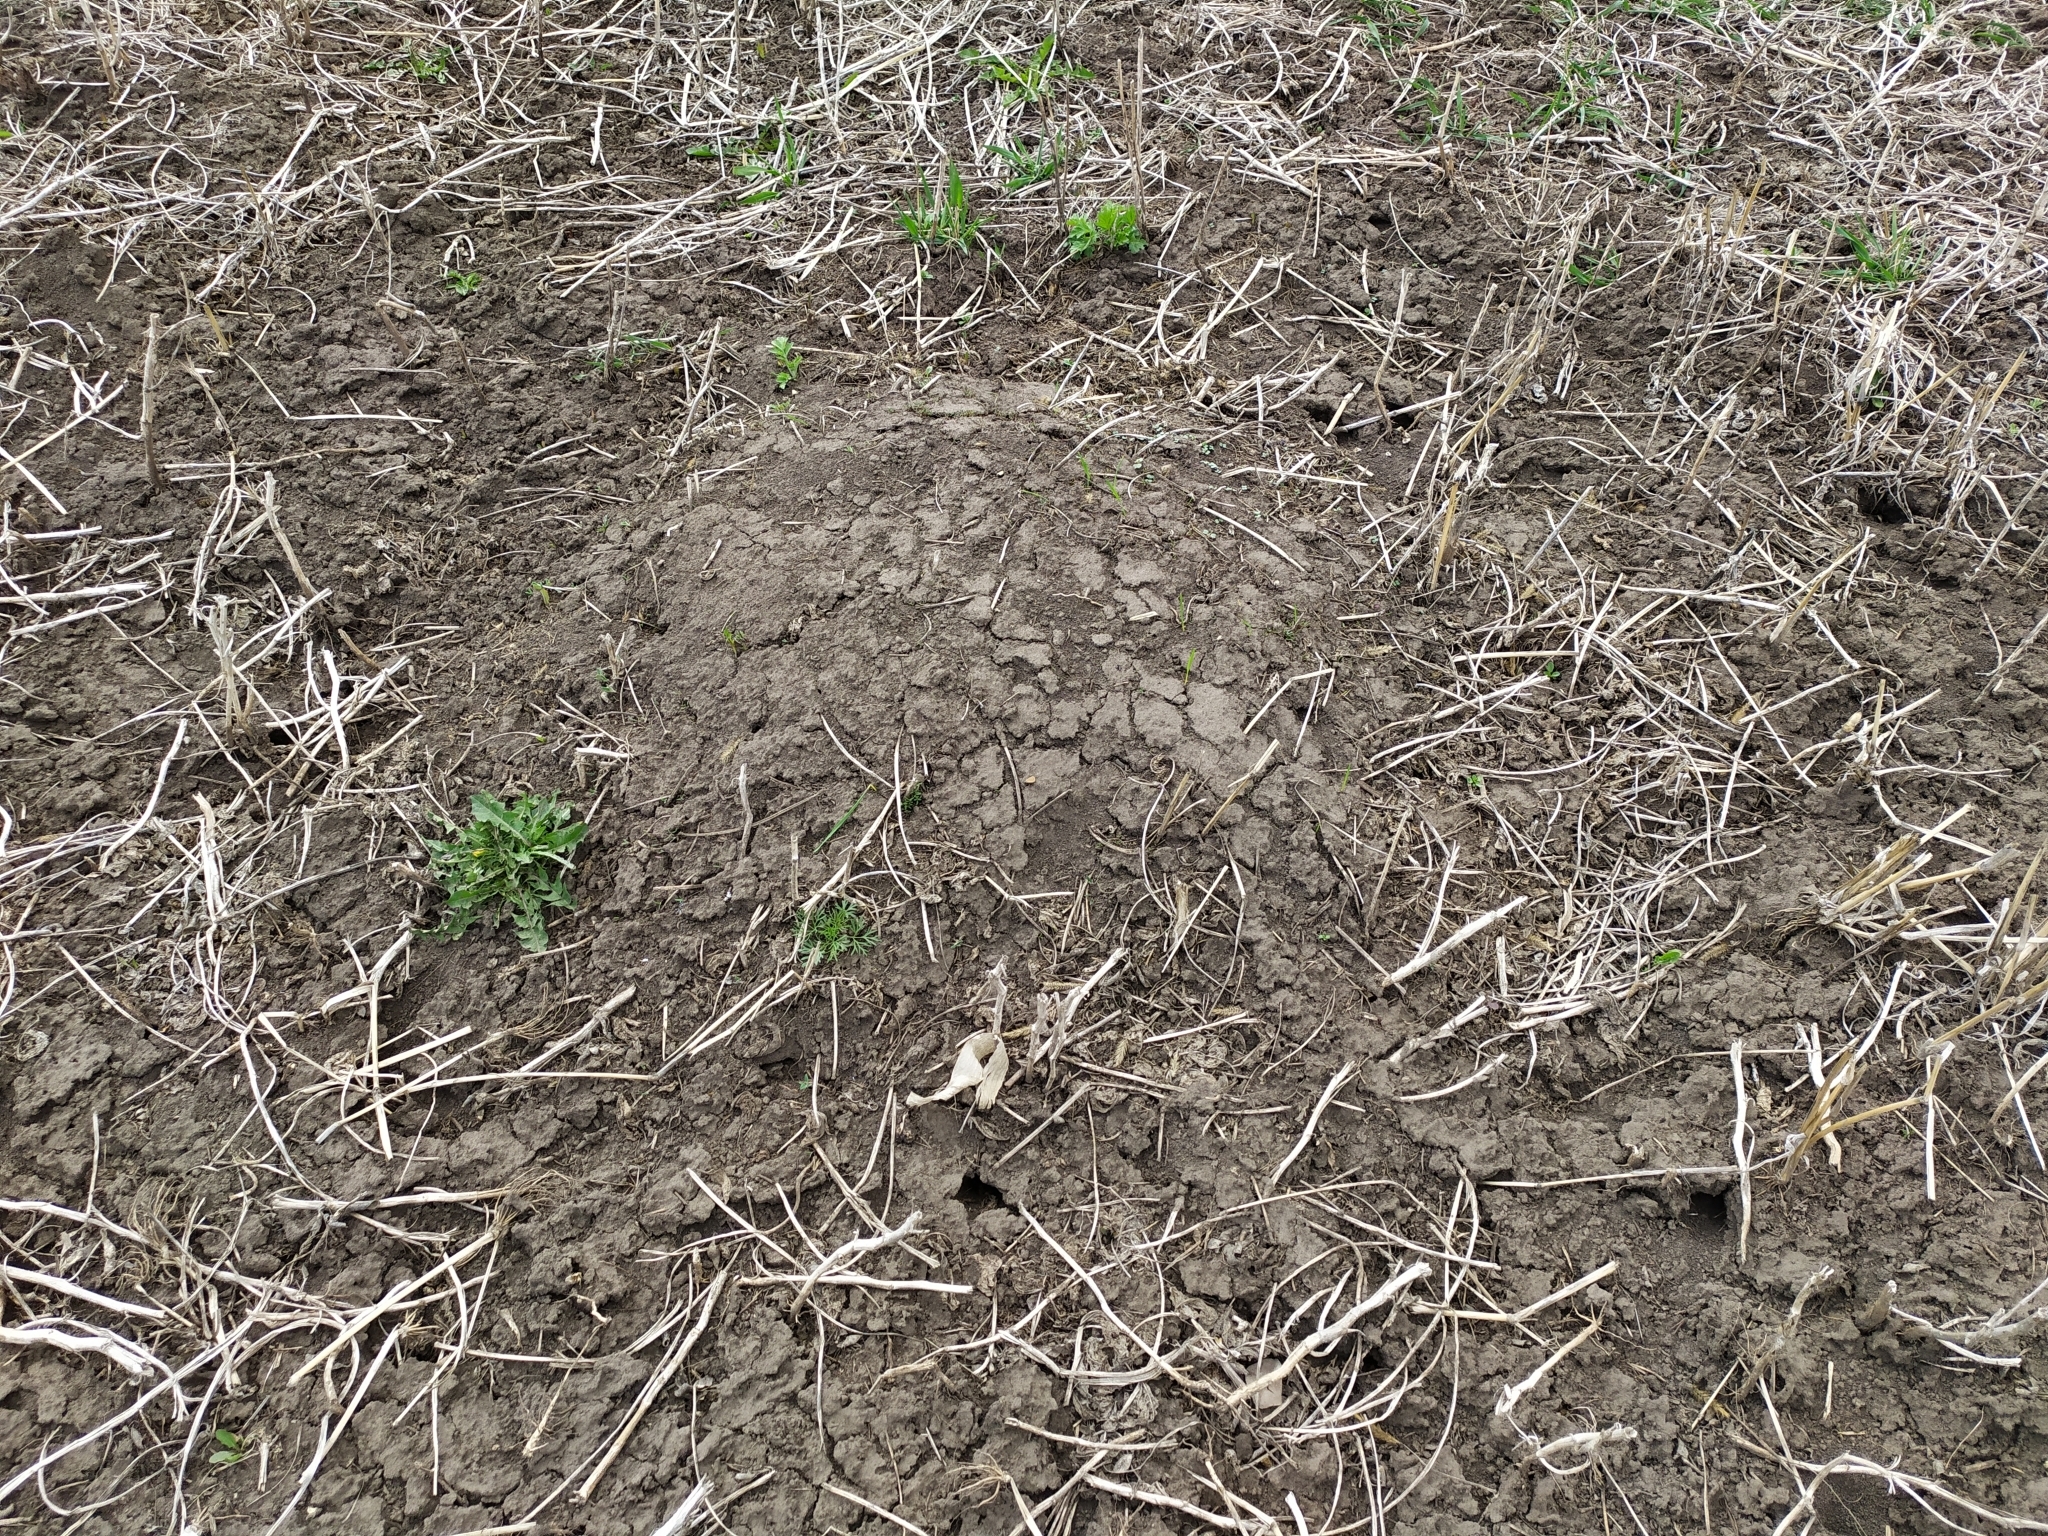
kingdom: Animalia
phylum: Chordata
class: Mammalia
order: Rodentia
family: Muridae
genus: Mus
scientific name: Mus spicilegus
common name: Mound-building mouse
